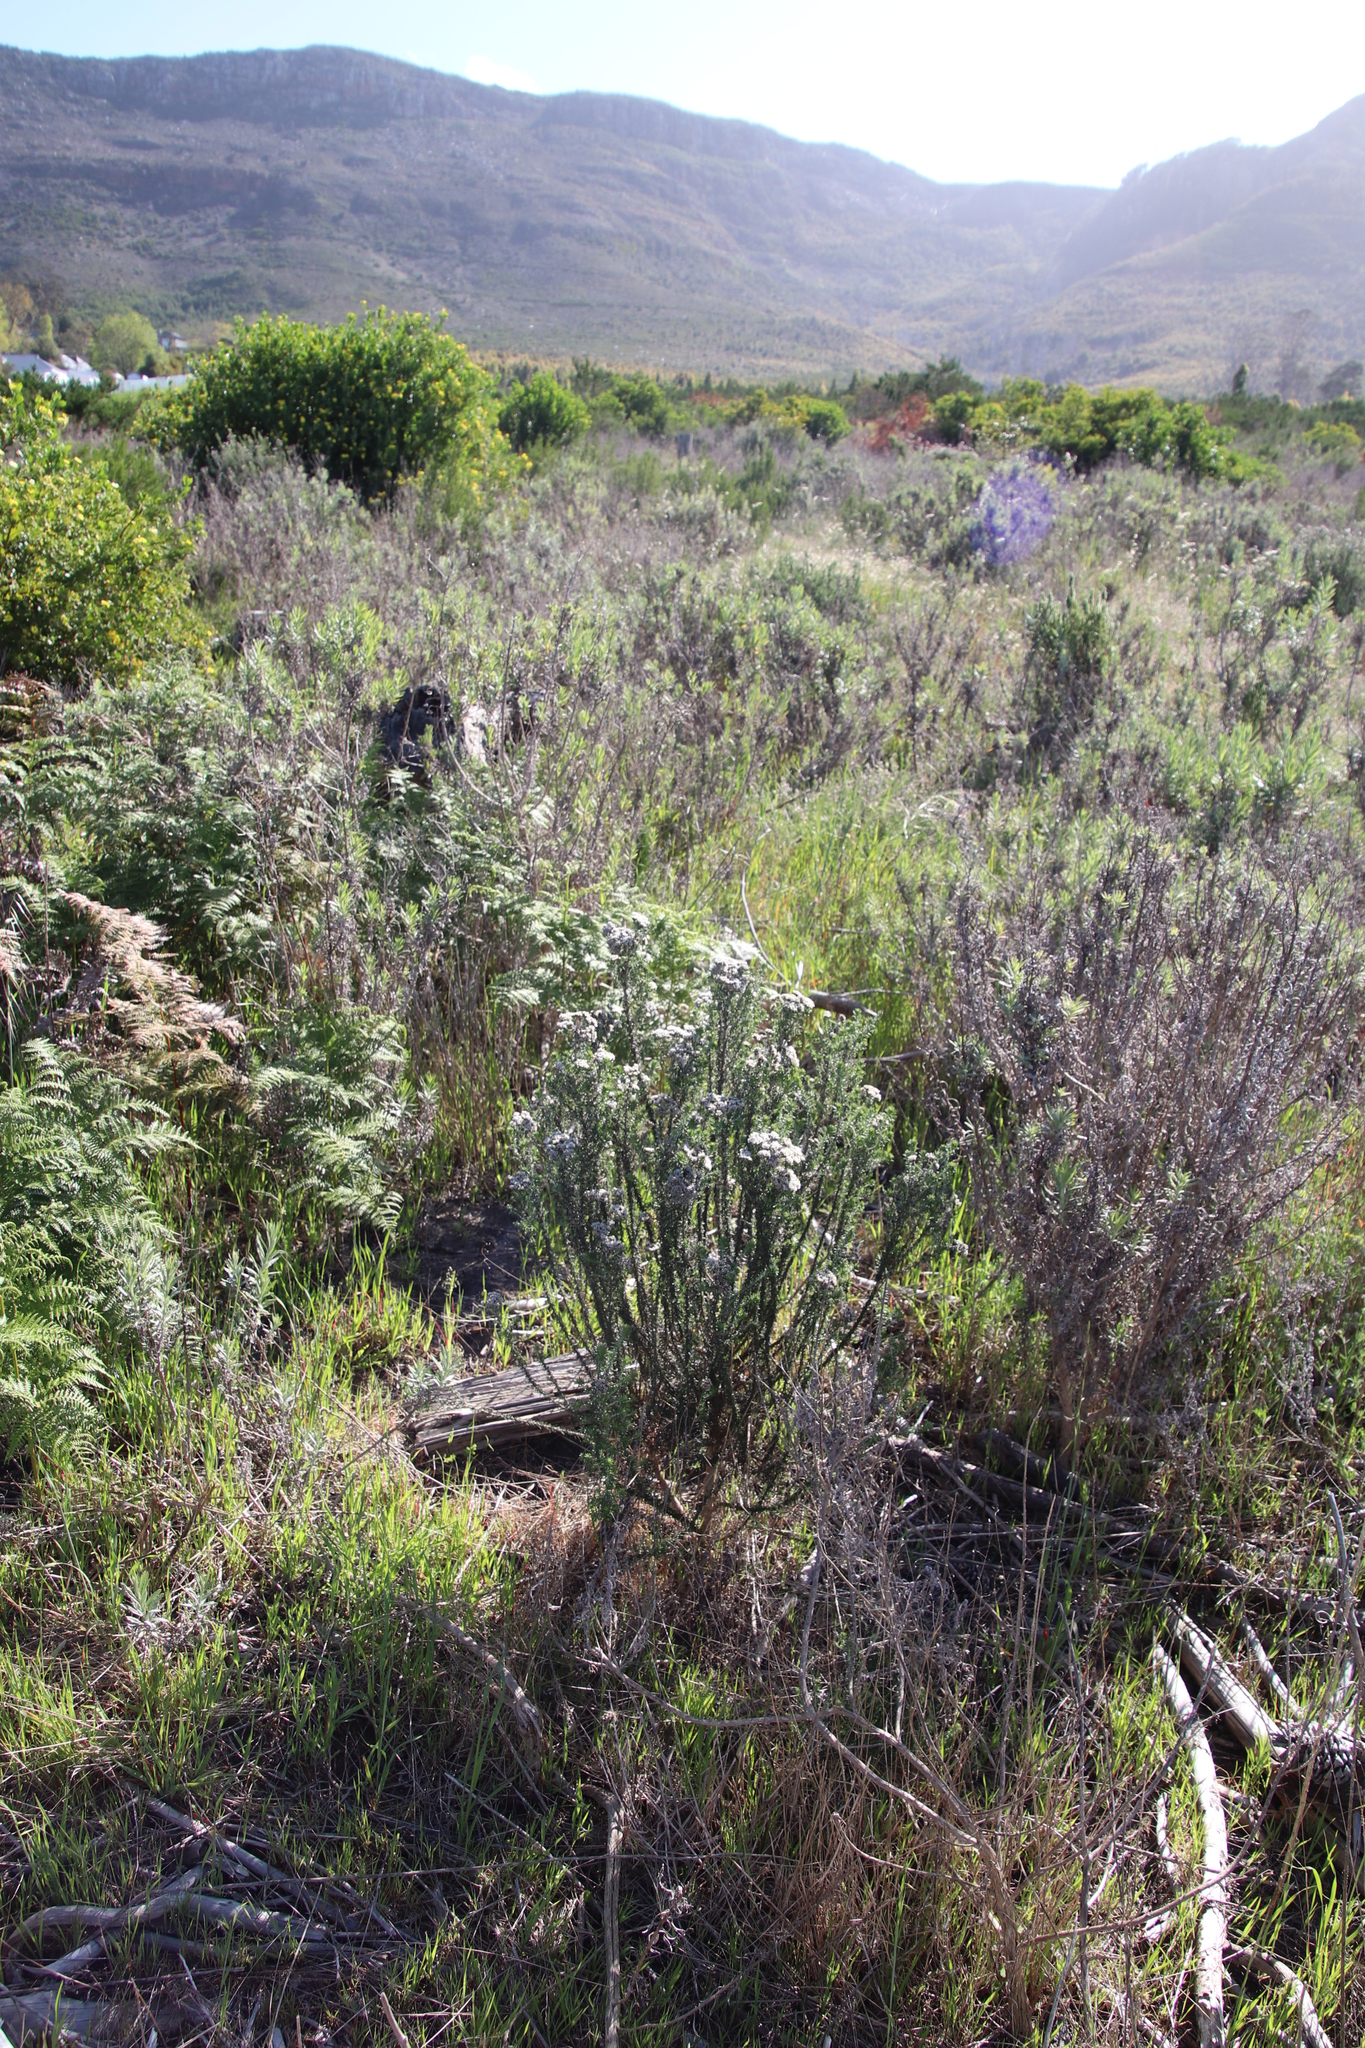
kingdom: Plantae
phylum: Tracheophyta
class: Magnoliopsida
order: Asterales
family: Asteraceae
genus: Metalasia
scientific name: Metalasia densa
